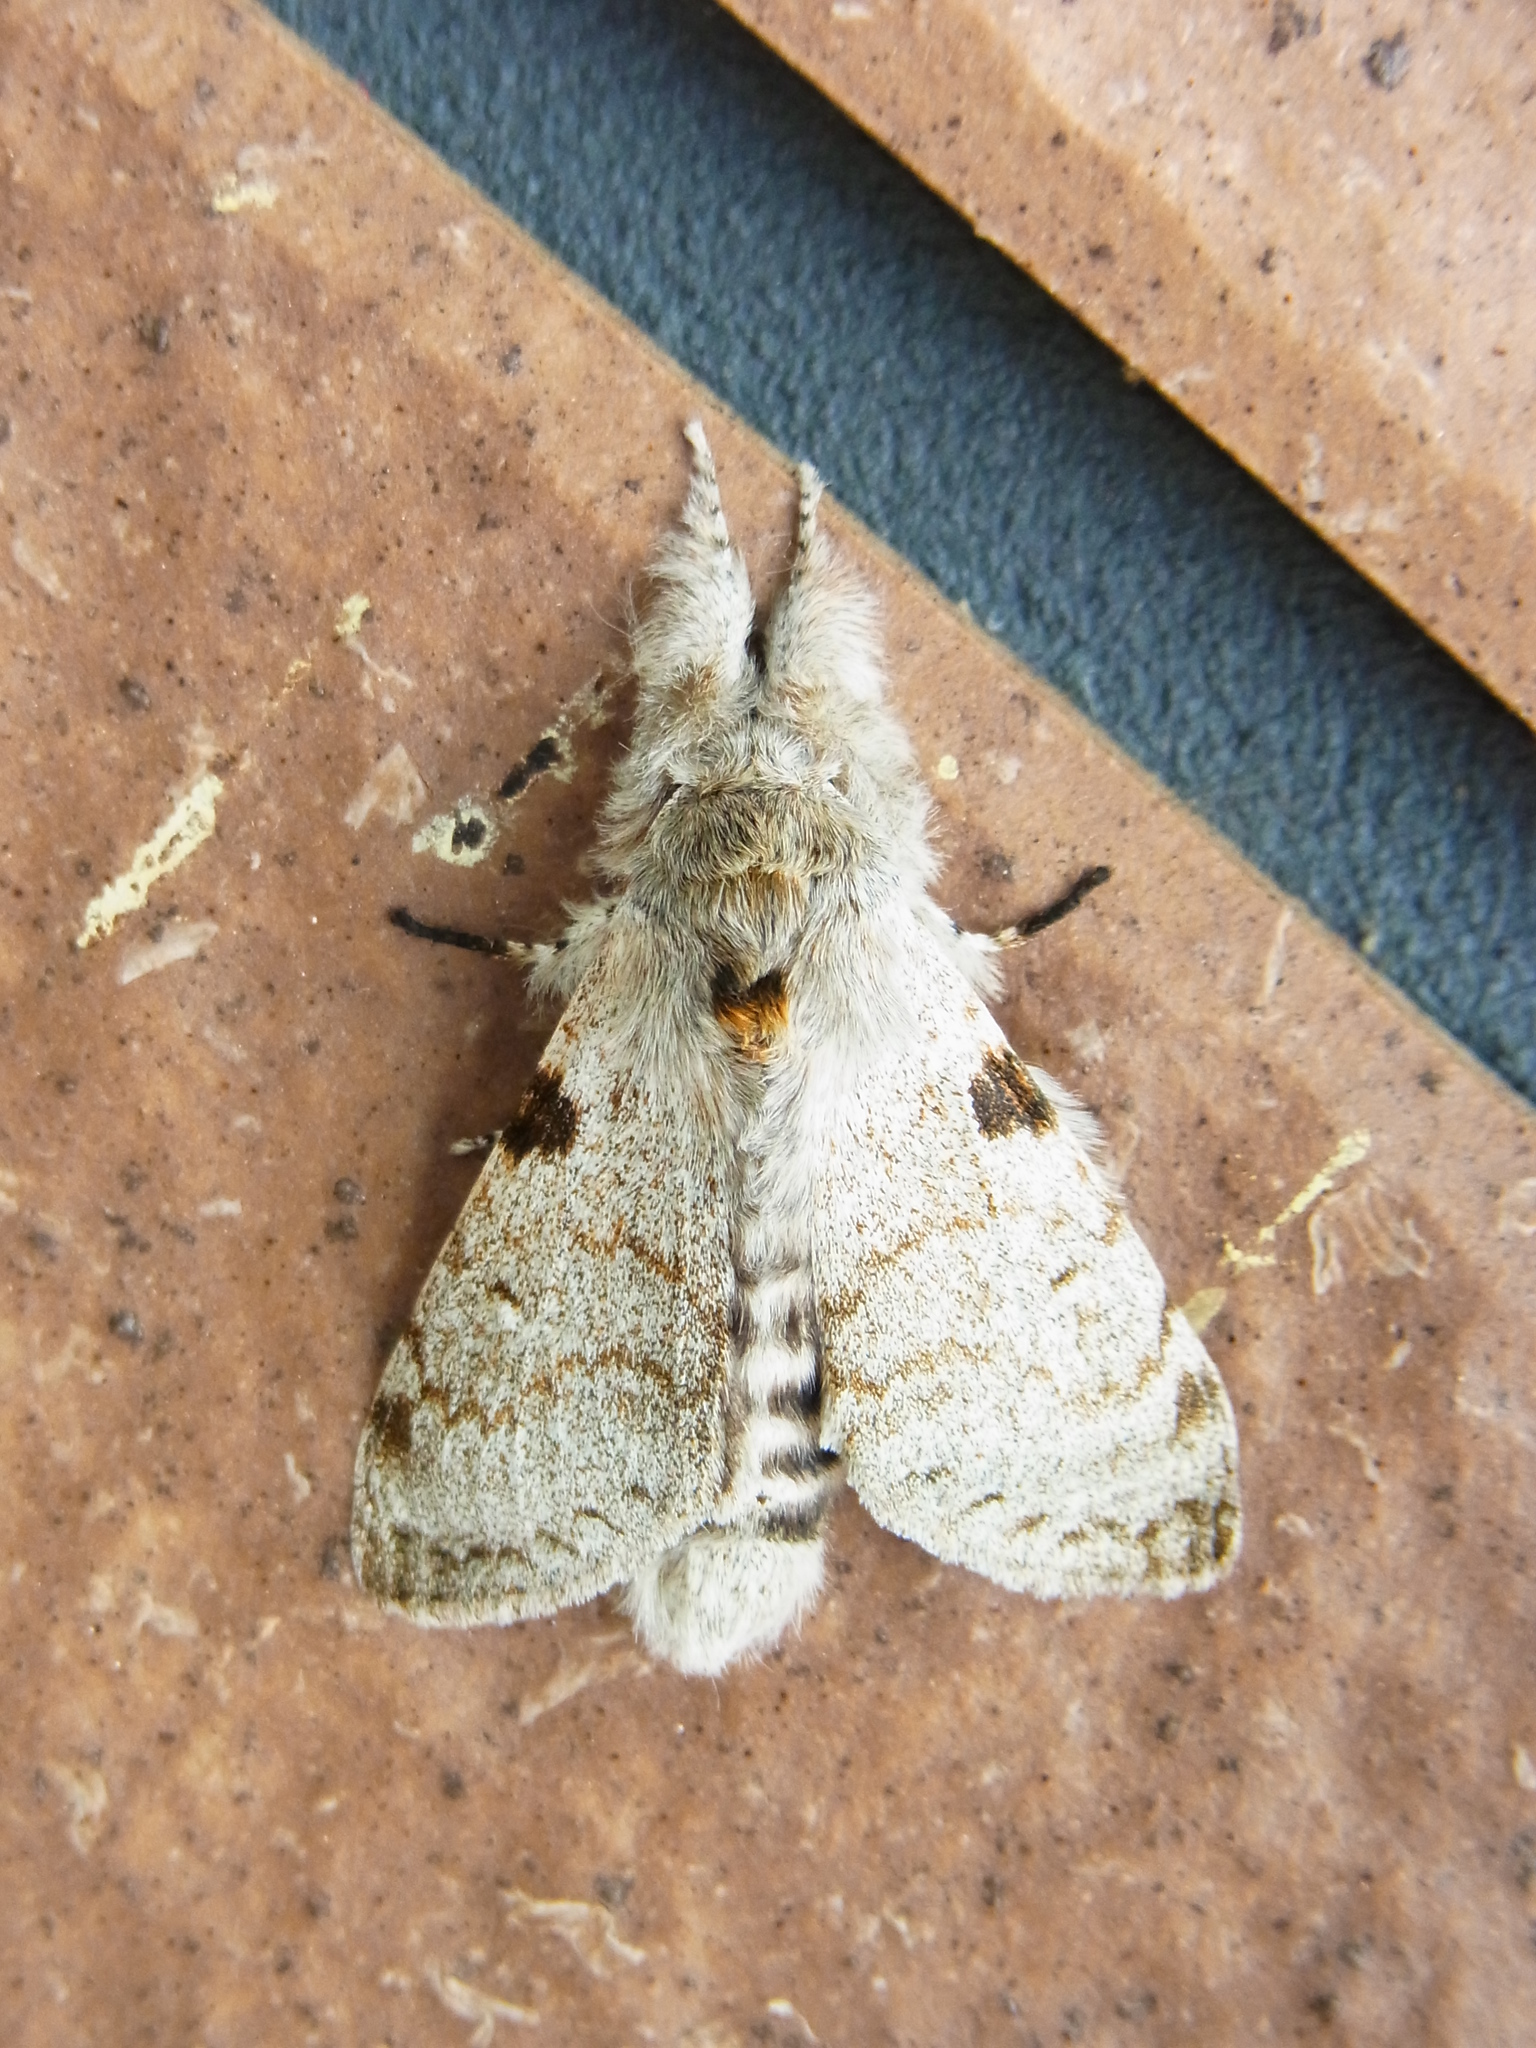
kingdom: Animalia
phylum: Arthropoda
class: Insecta
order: Lepidoptera
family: Erebidae
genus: Calliteara
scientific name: Calliteara lunulata
